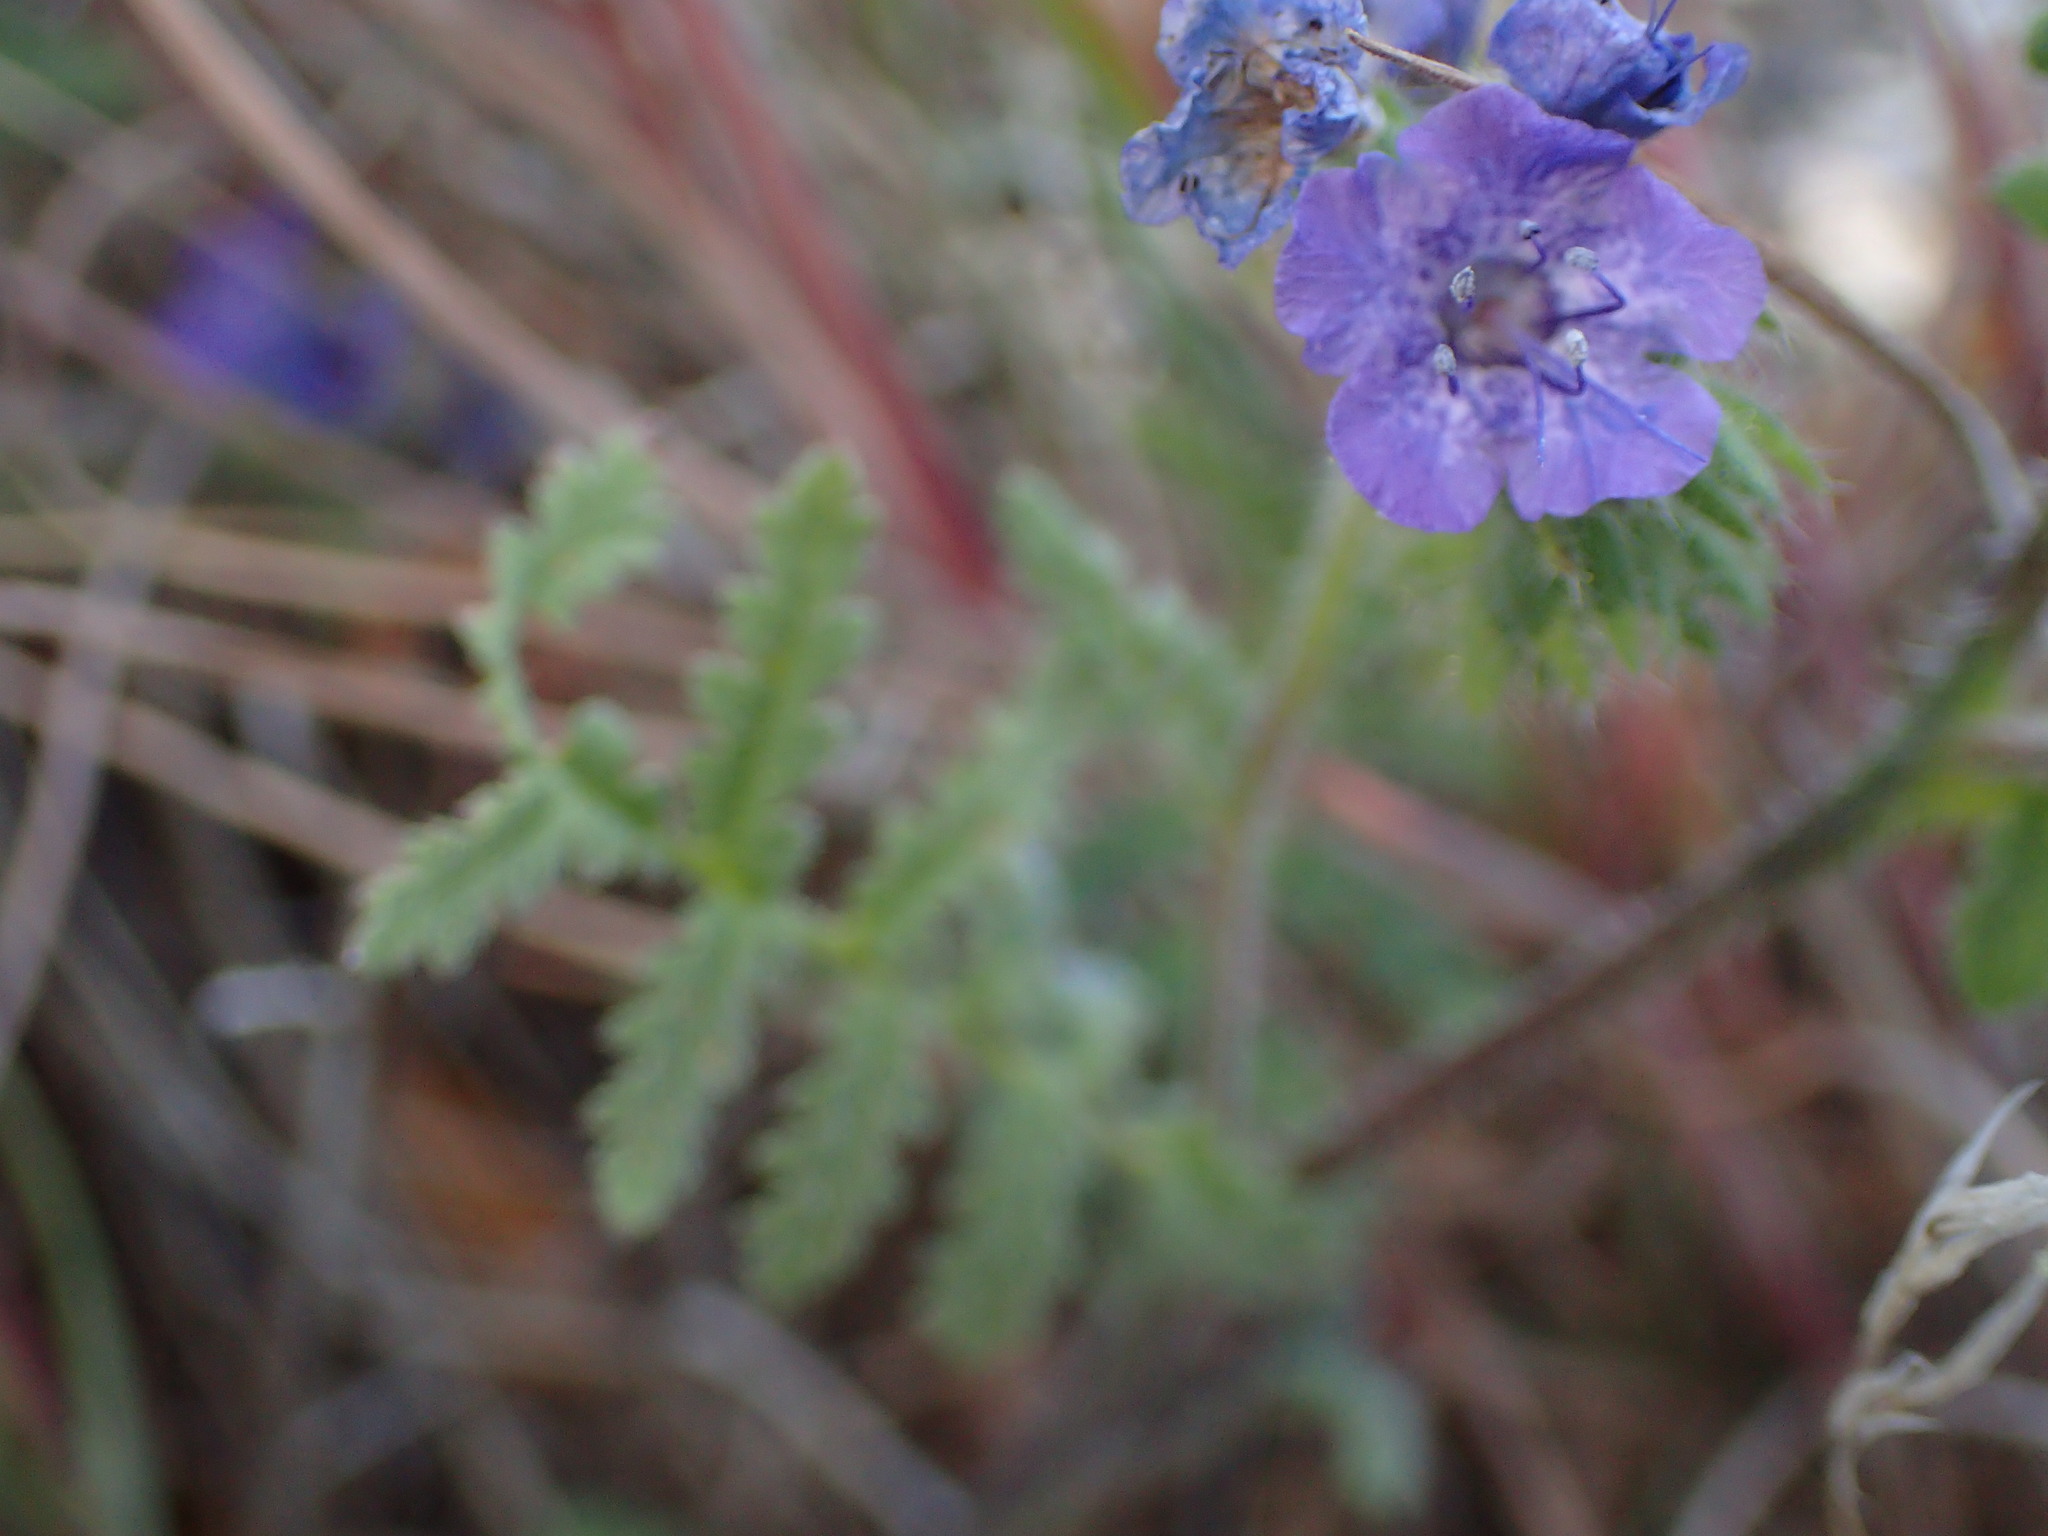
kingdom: Plantae
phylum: Tracheophyta
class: Magnoliopsida
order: Boraginales
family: Hydrophyllaceae
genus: Phacelia
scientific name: Phacelia distans
